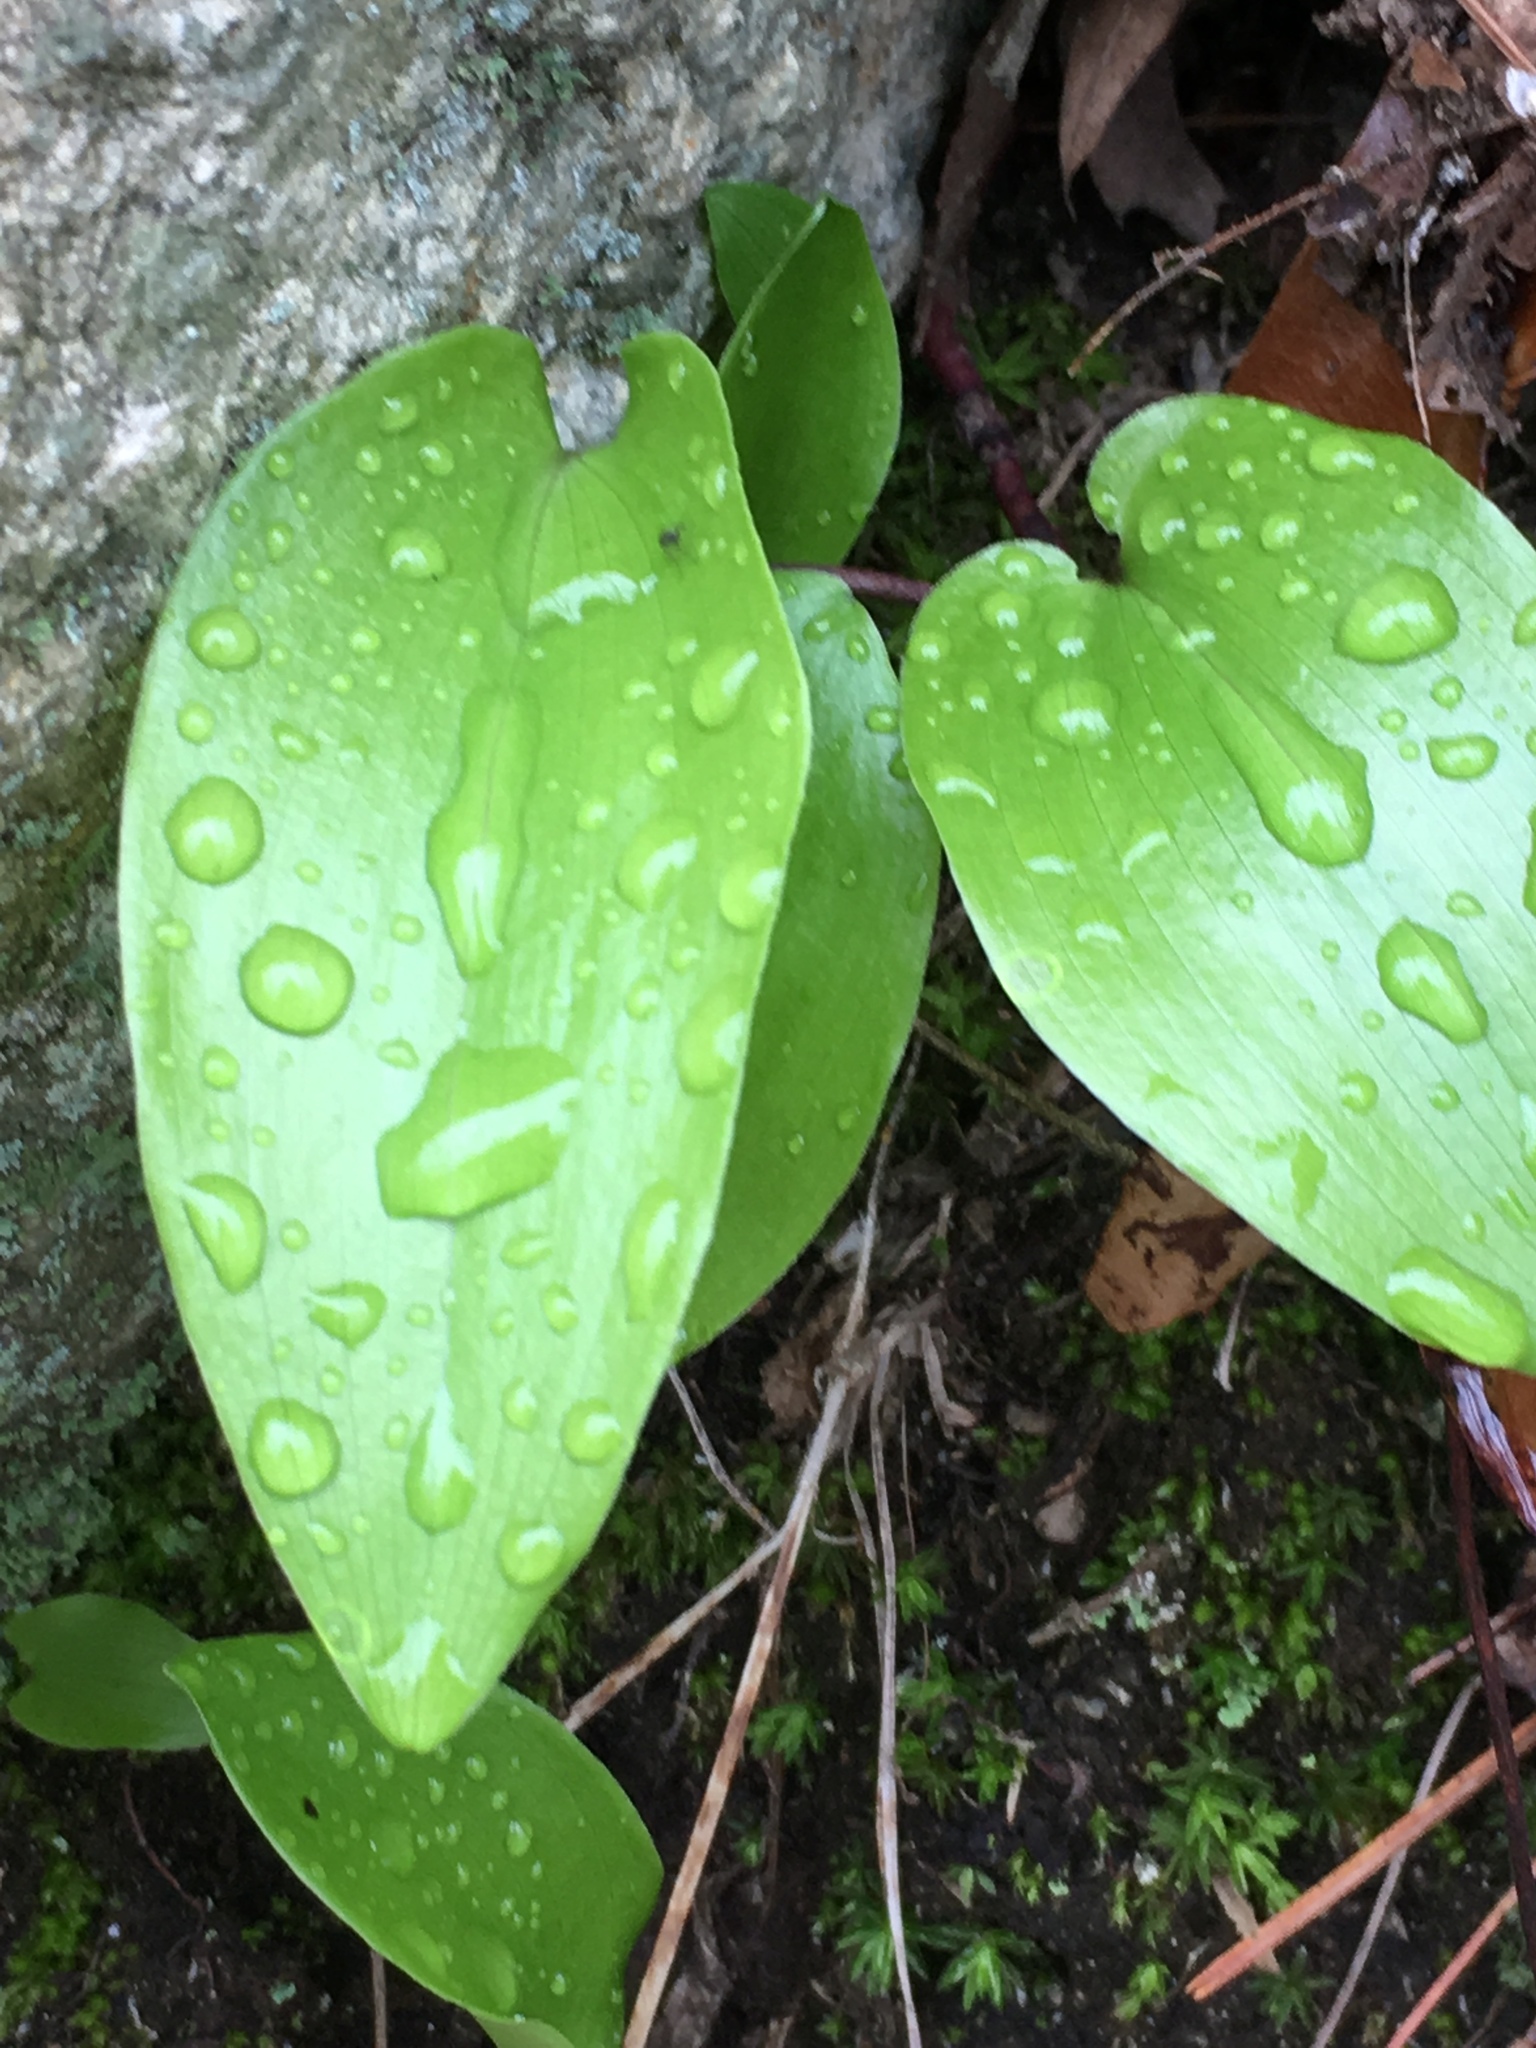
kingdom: Plantae
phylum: Tracheophyta
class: Liliopsida
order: Asparagales
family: Asparagaceae
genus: Maianthemum
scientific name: Maianthemum canadense
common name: False lily-of-the-valley
